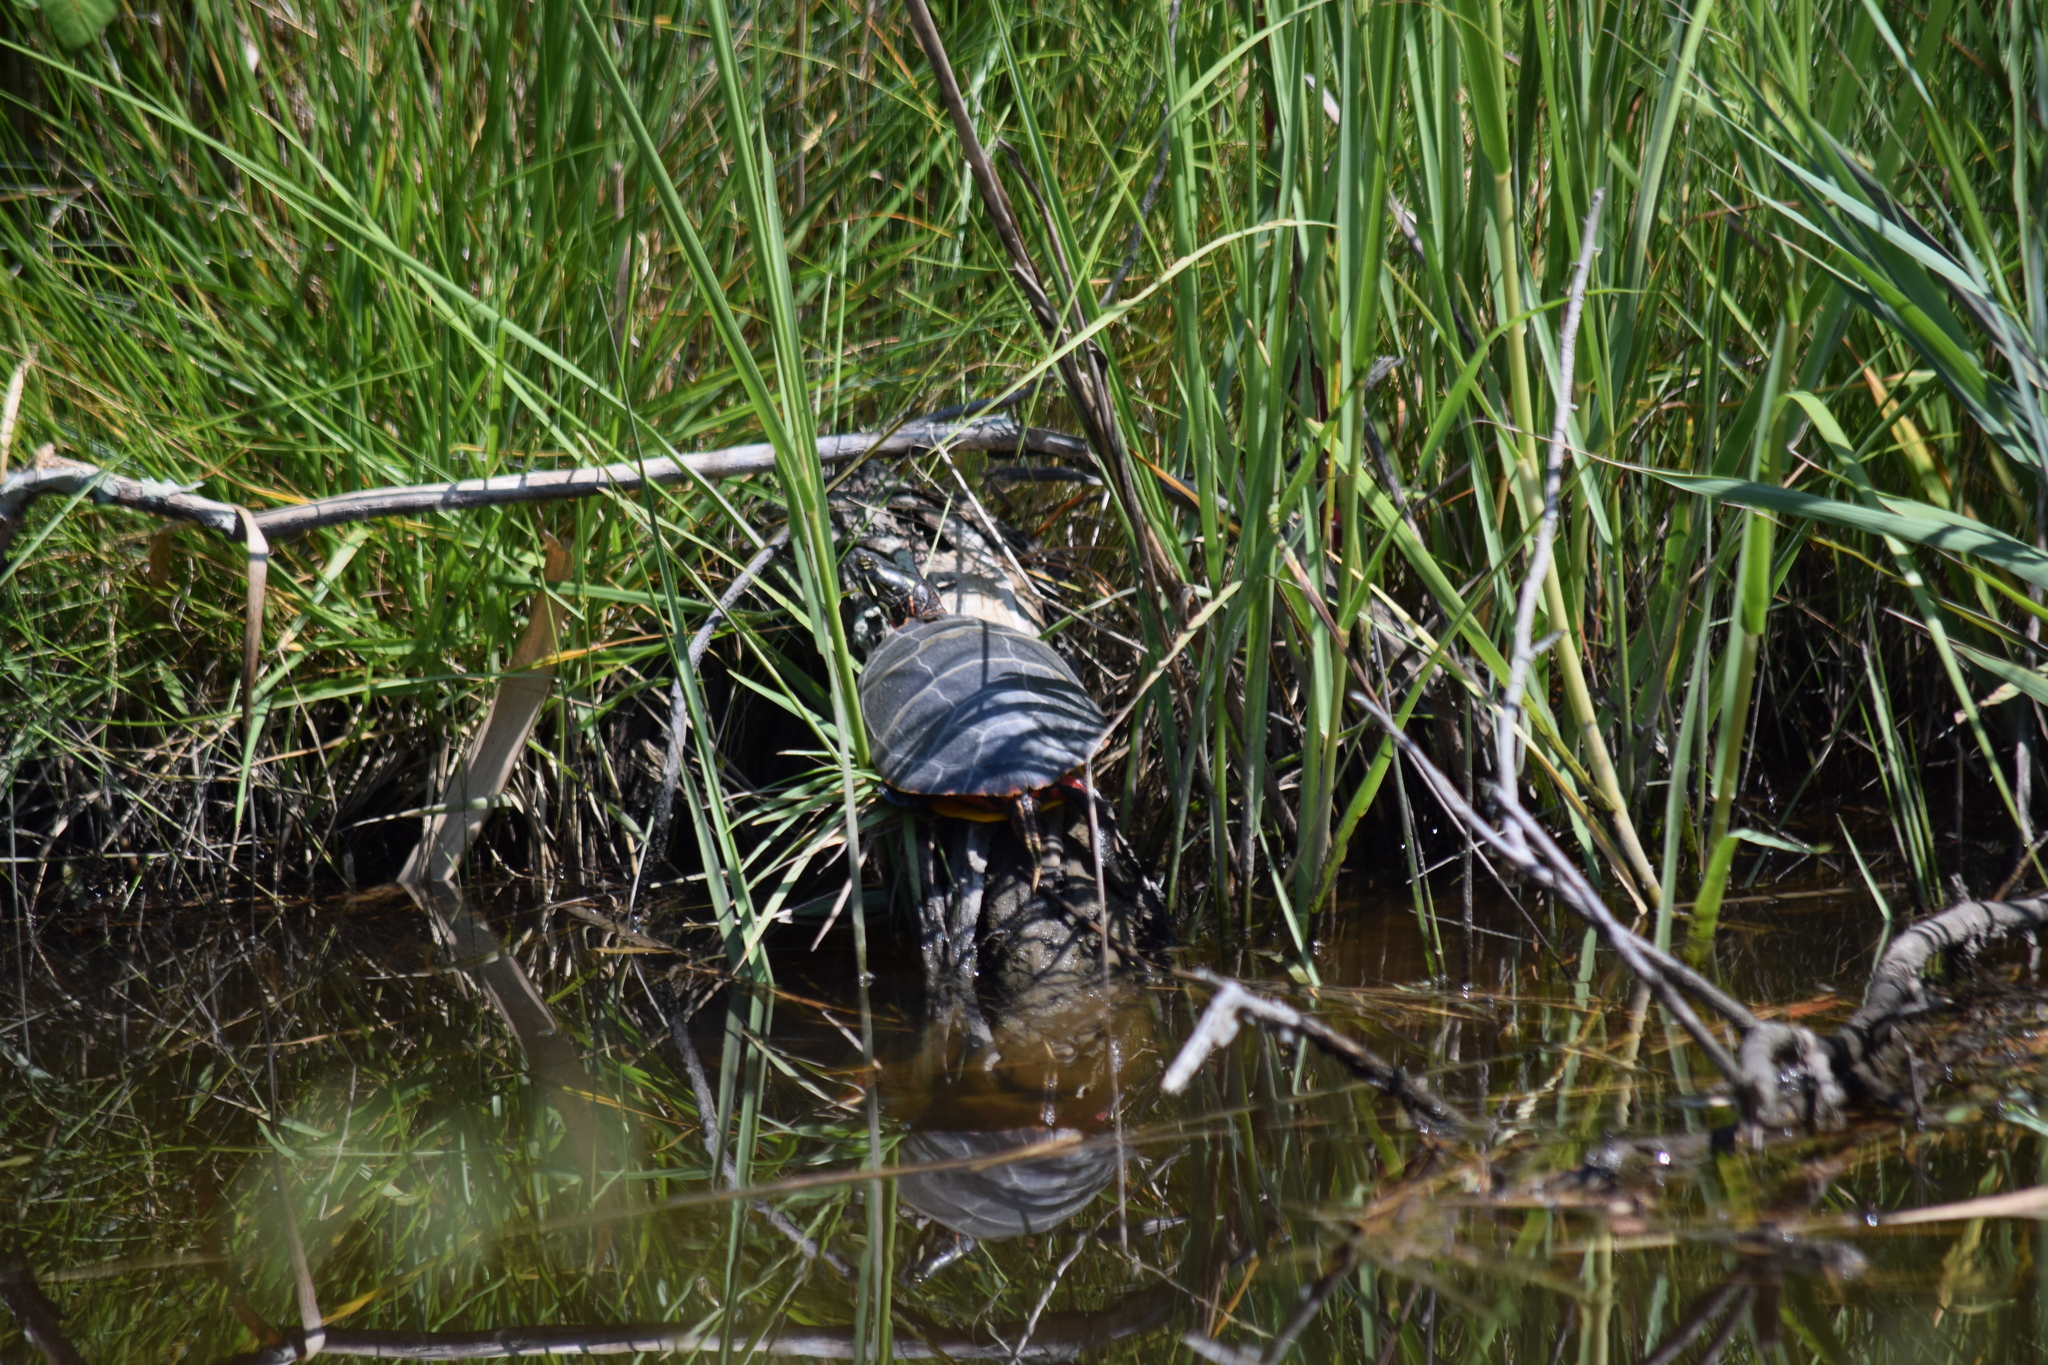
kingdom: Animalia
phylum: Chordata
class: Testudines
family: Emydidae
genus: Chrysemys
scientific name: Chrysemys picta
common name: Painted turtle
